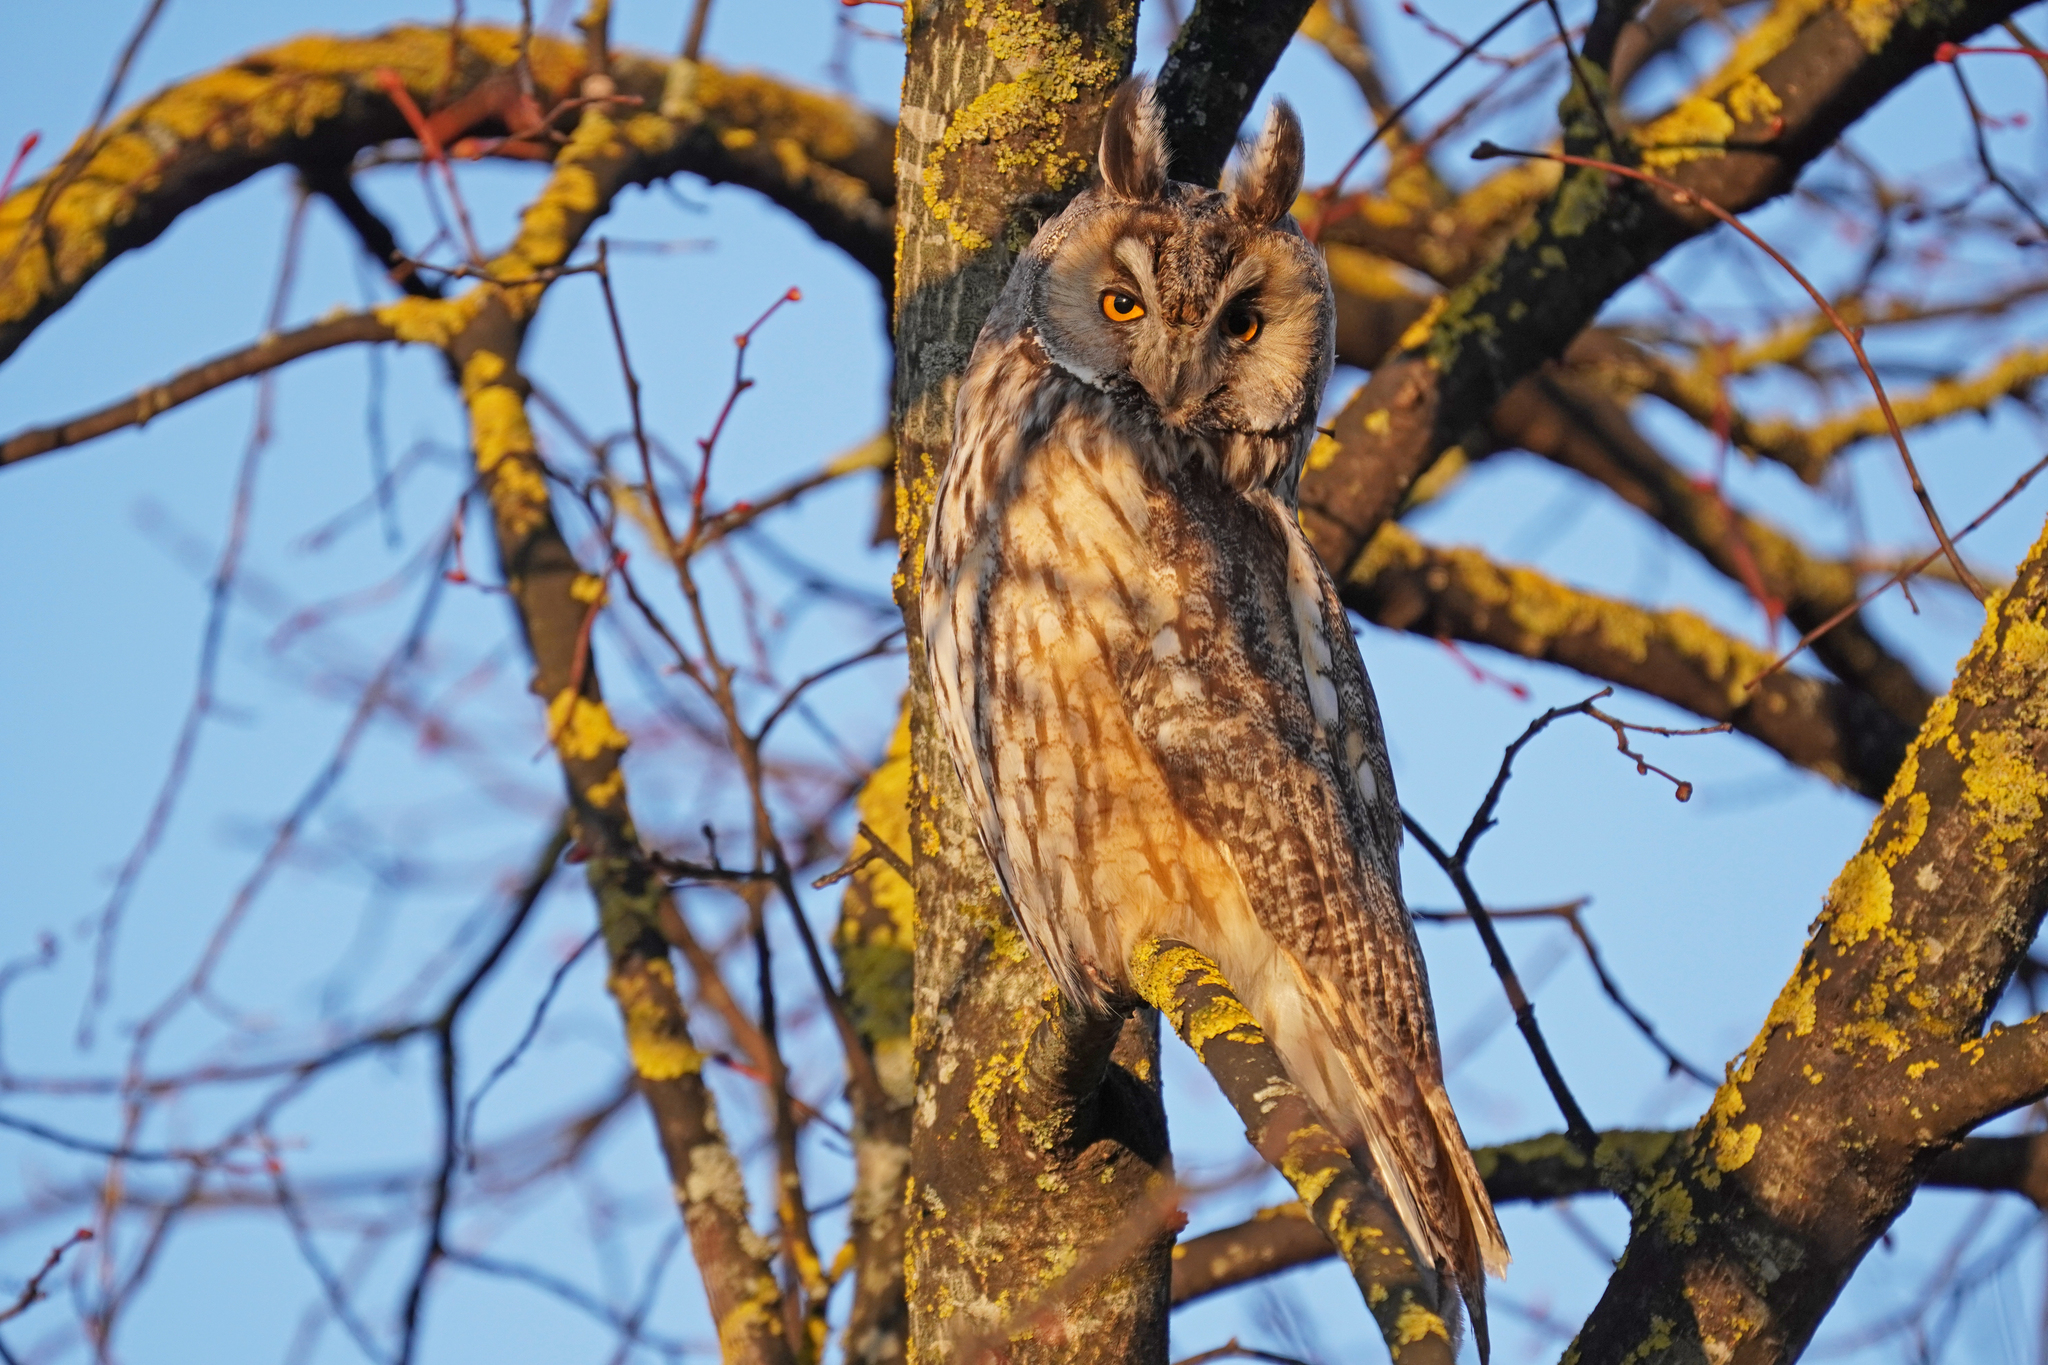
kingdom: Animalia
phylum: Chordata
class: Aves
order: Strigiformes
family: Strigidae
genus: Asio
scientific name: Asio otus
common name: Long-eared owl
